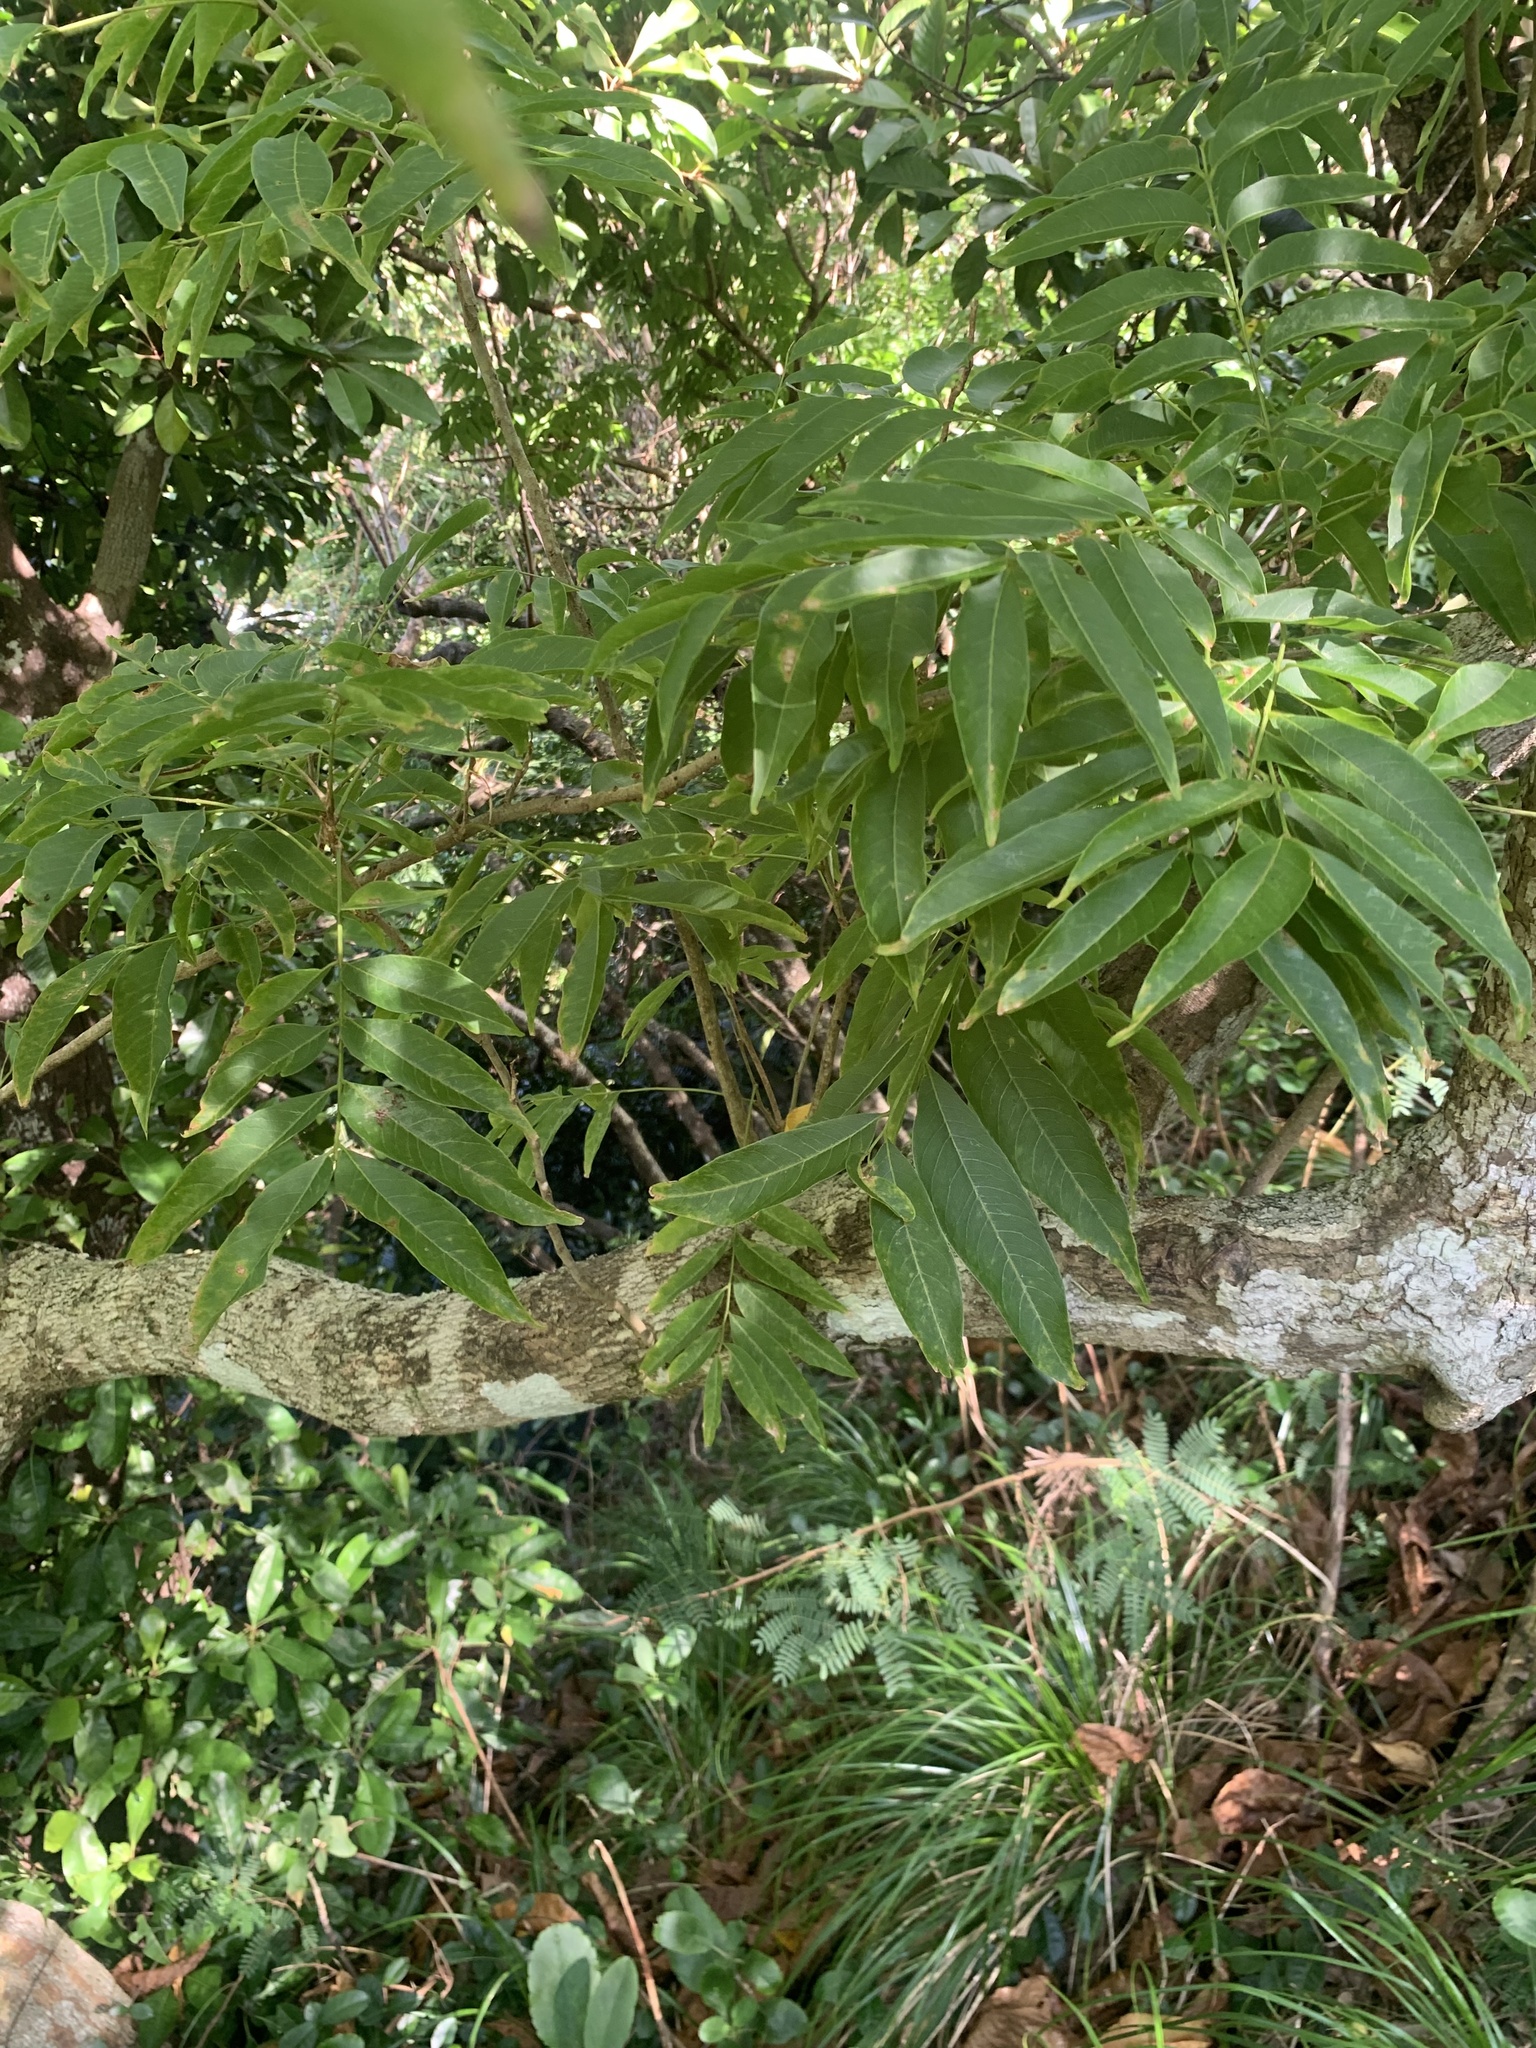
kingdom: Plantae
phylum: Tracheophyta
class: Magnoliopsida
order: Sapindales
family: Sapindaceae
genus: Sapindus
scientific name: Sapindus mukorossi
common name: Chinese soapberry
